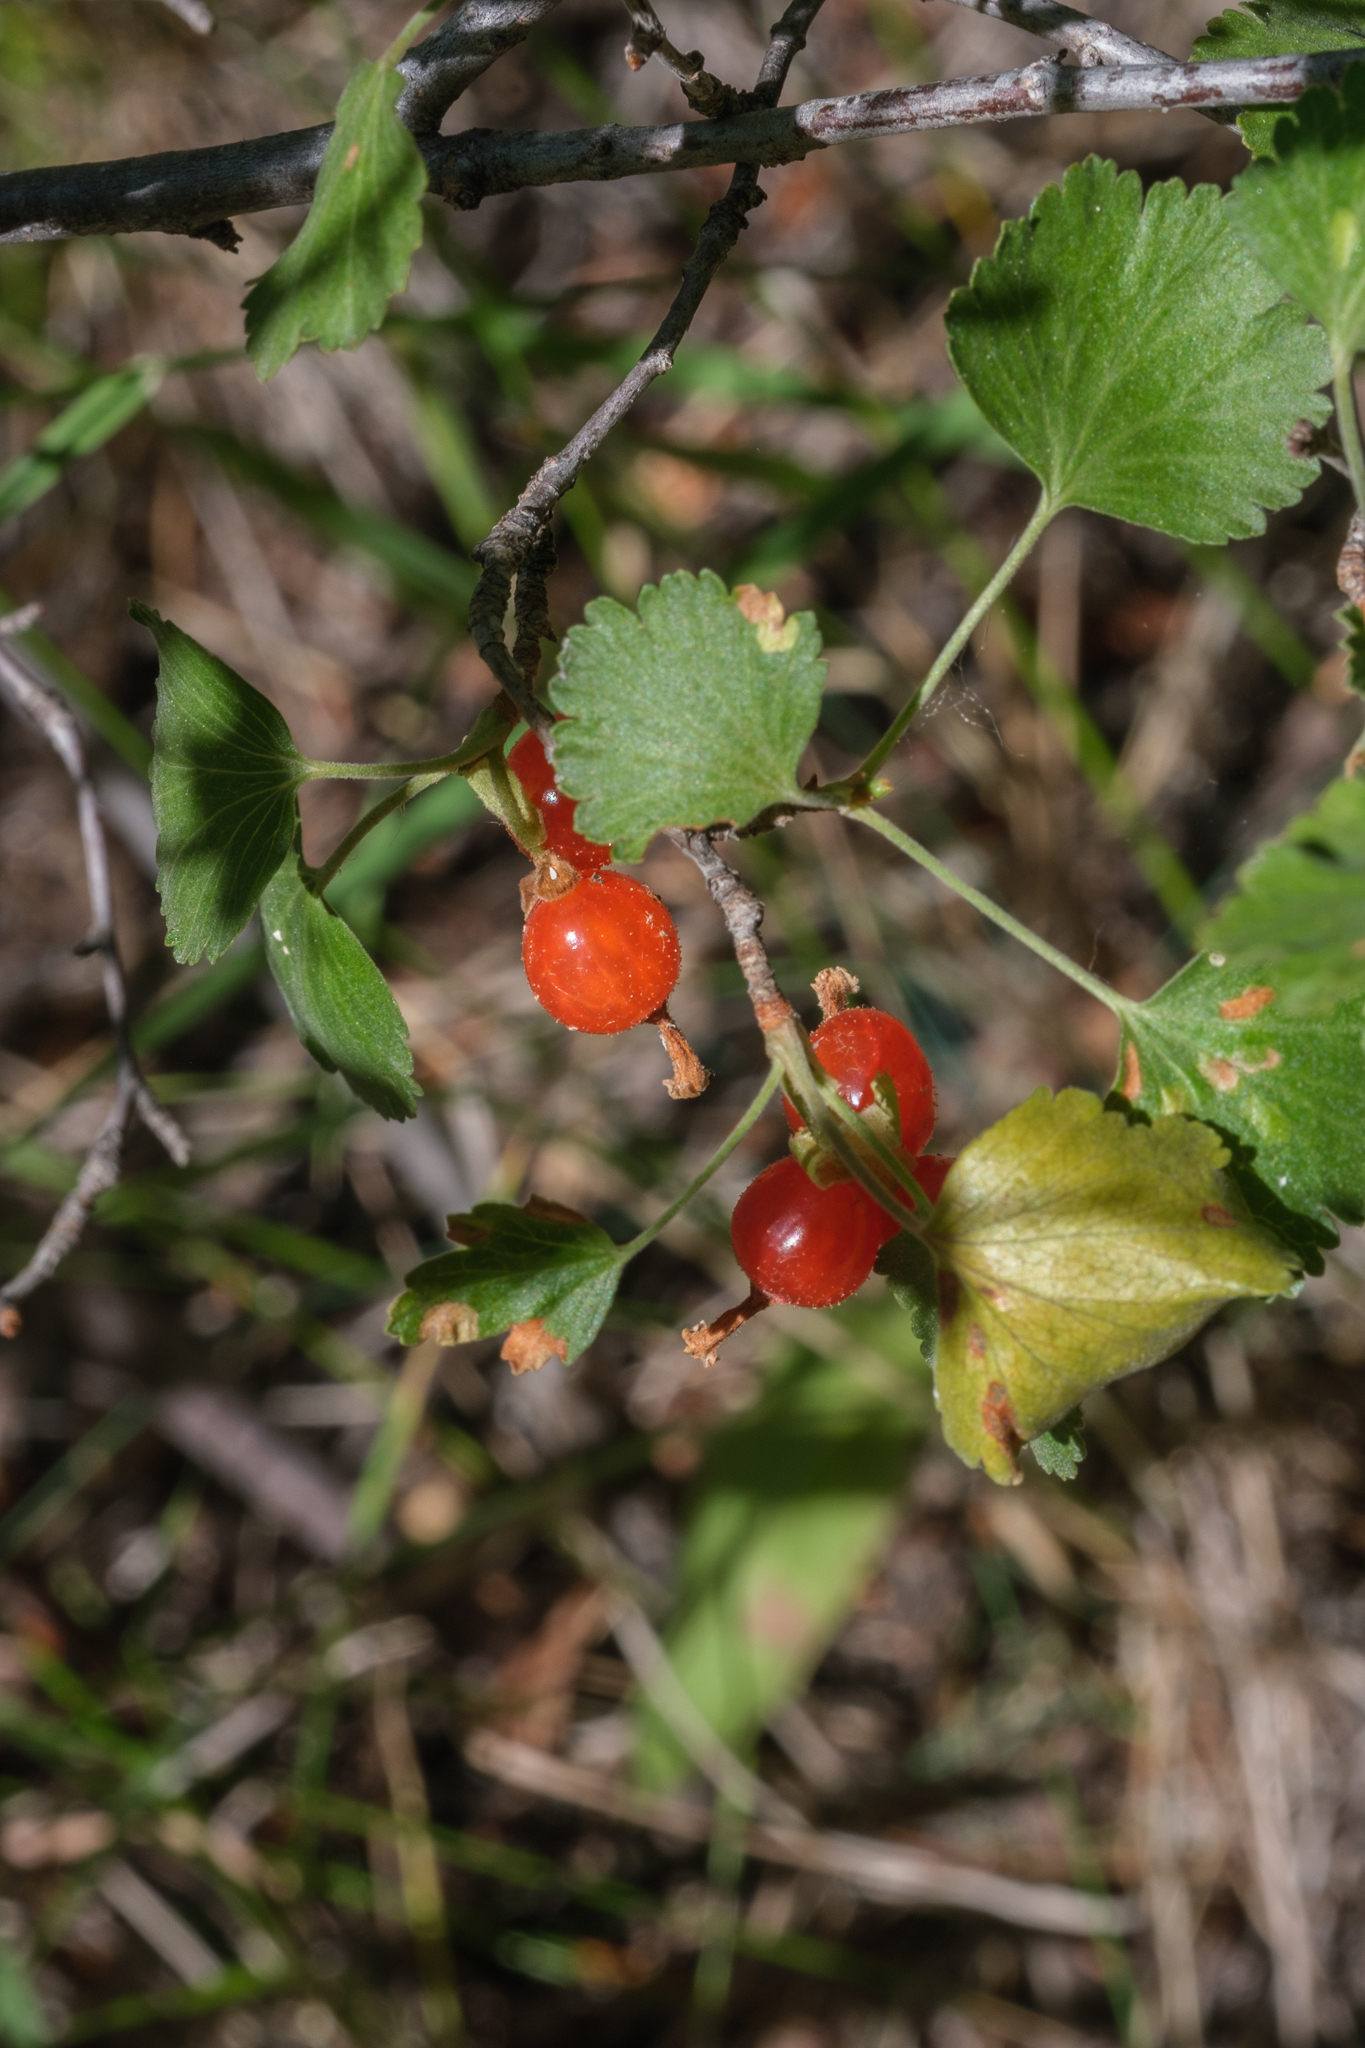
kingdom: Plantae
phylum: Tracheophyta
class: Magnoliopsida
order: Saxifragales
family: Grossulariaceae
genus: Ribes
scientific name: Ribes cereum
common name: Wax currant
